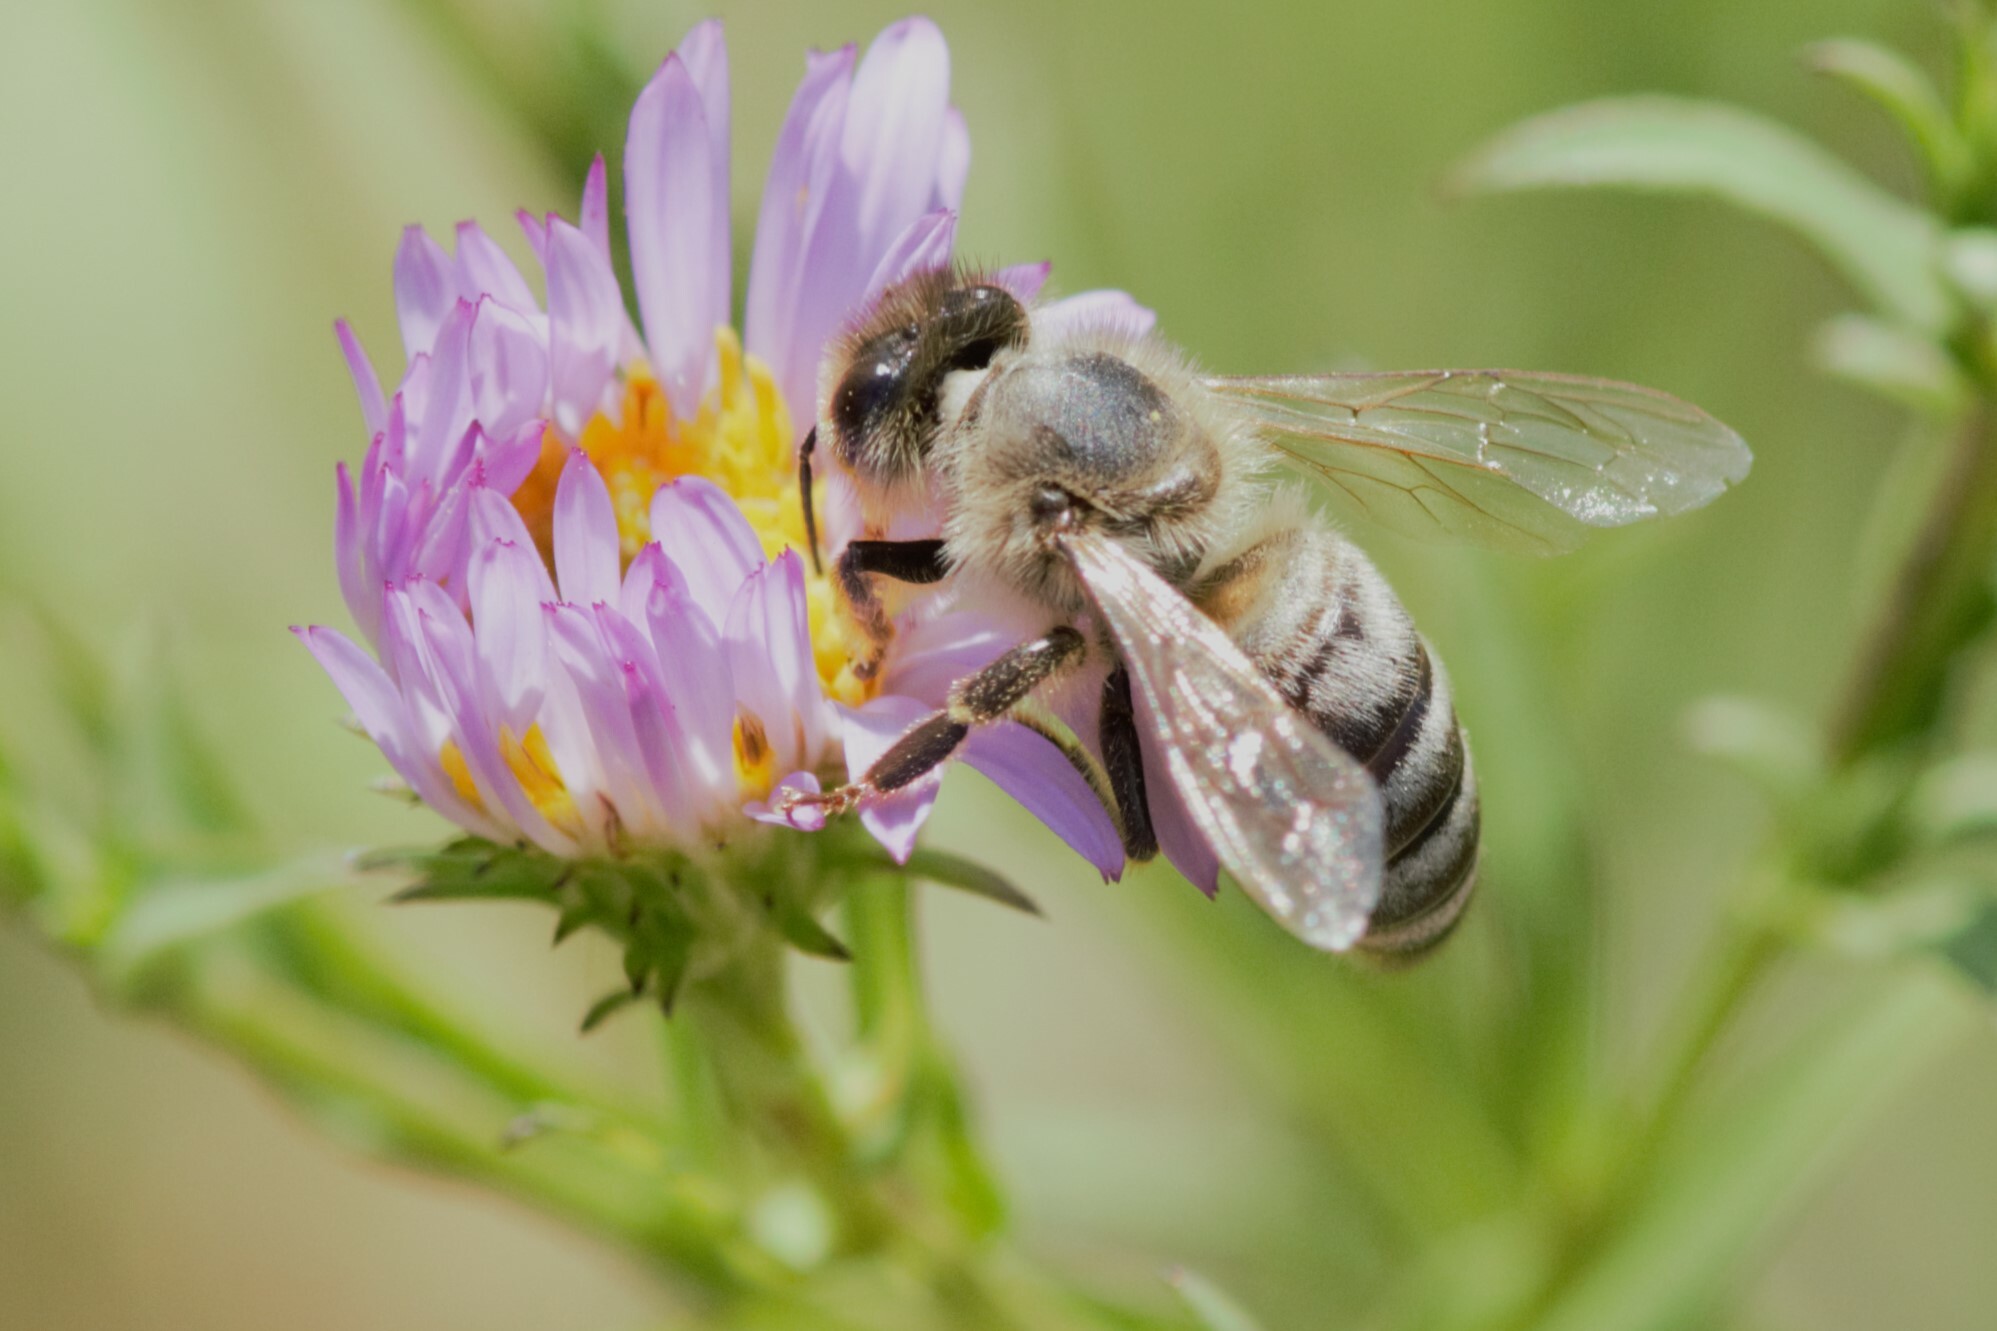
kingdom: Animalia
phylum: Arthropoda
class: Insecta
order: Hymenoptera
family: Apidae
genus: Apis
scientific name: Apis mellifera
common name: Honey bee
